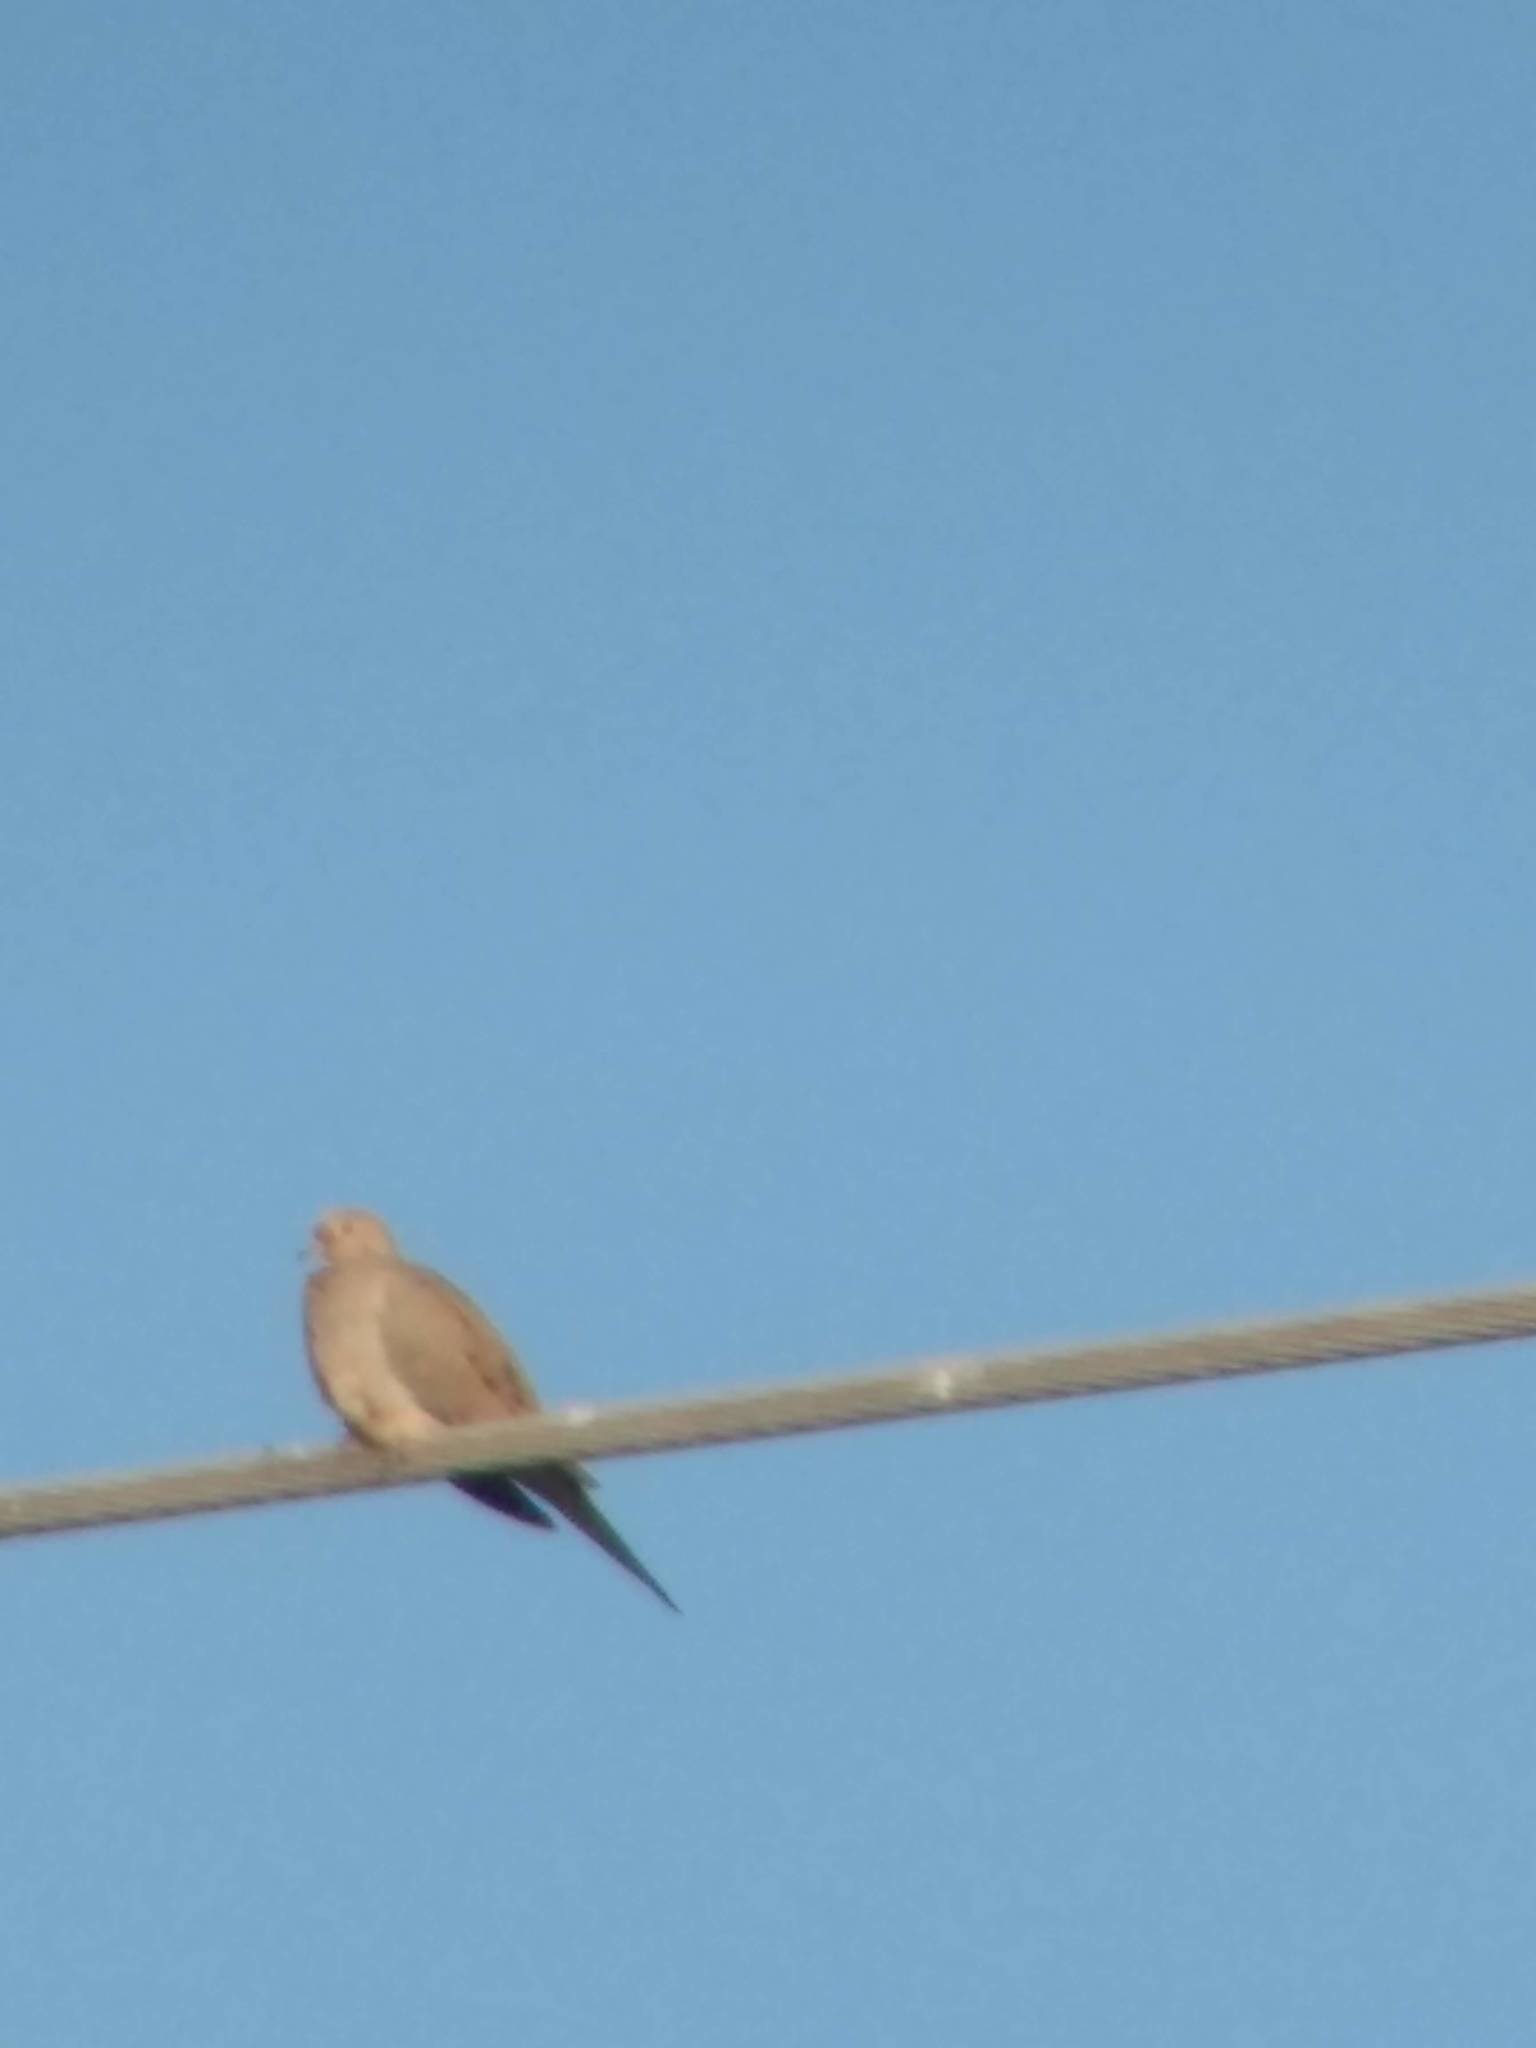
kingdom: Animalia
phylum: Chordata
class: Aves
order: Columbiformes
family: Columbidae
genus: Zenaida
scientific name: Zenaida macroura
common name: Mourning dove
